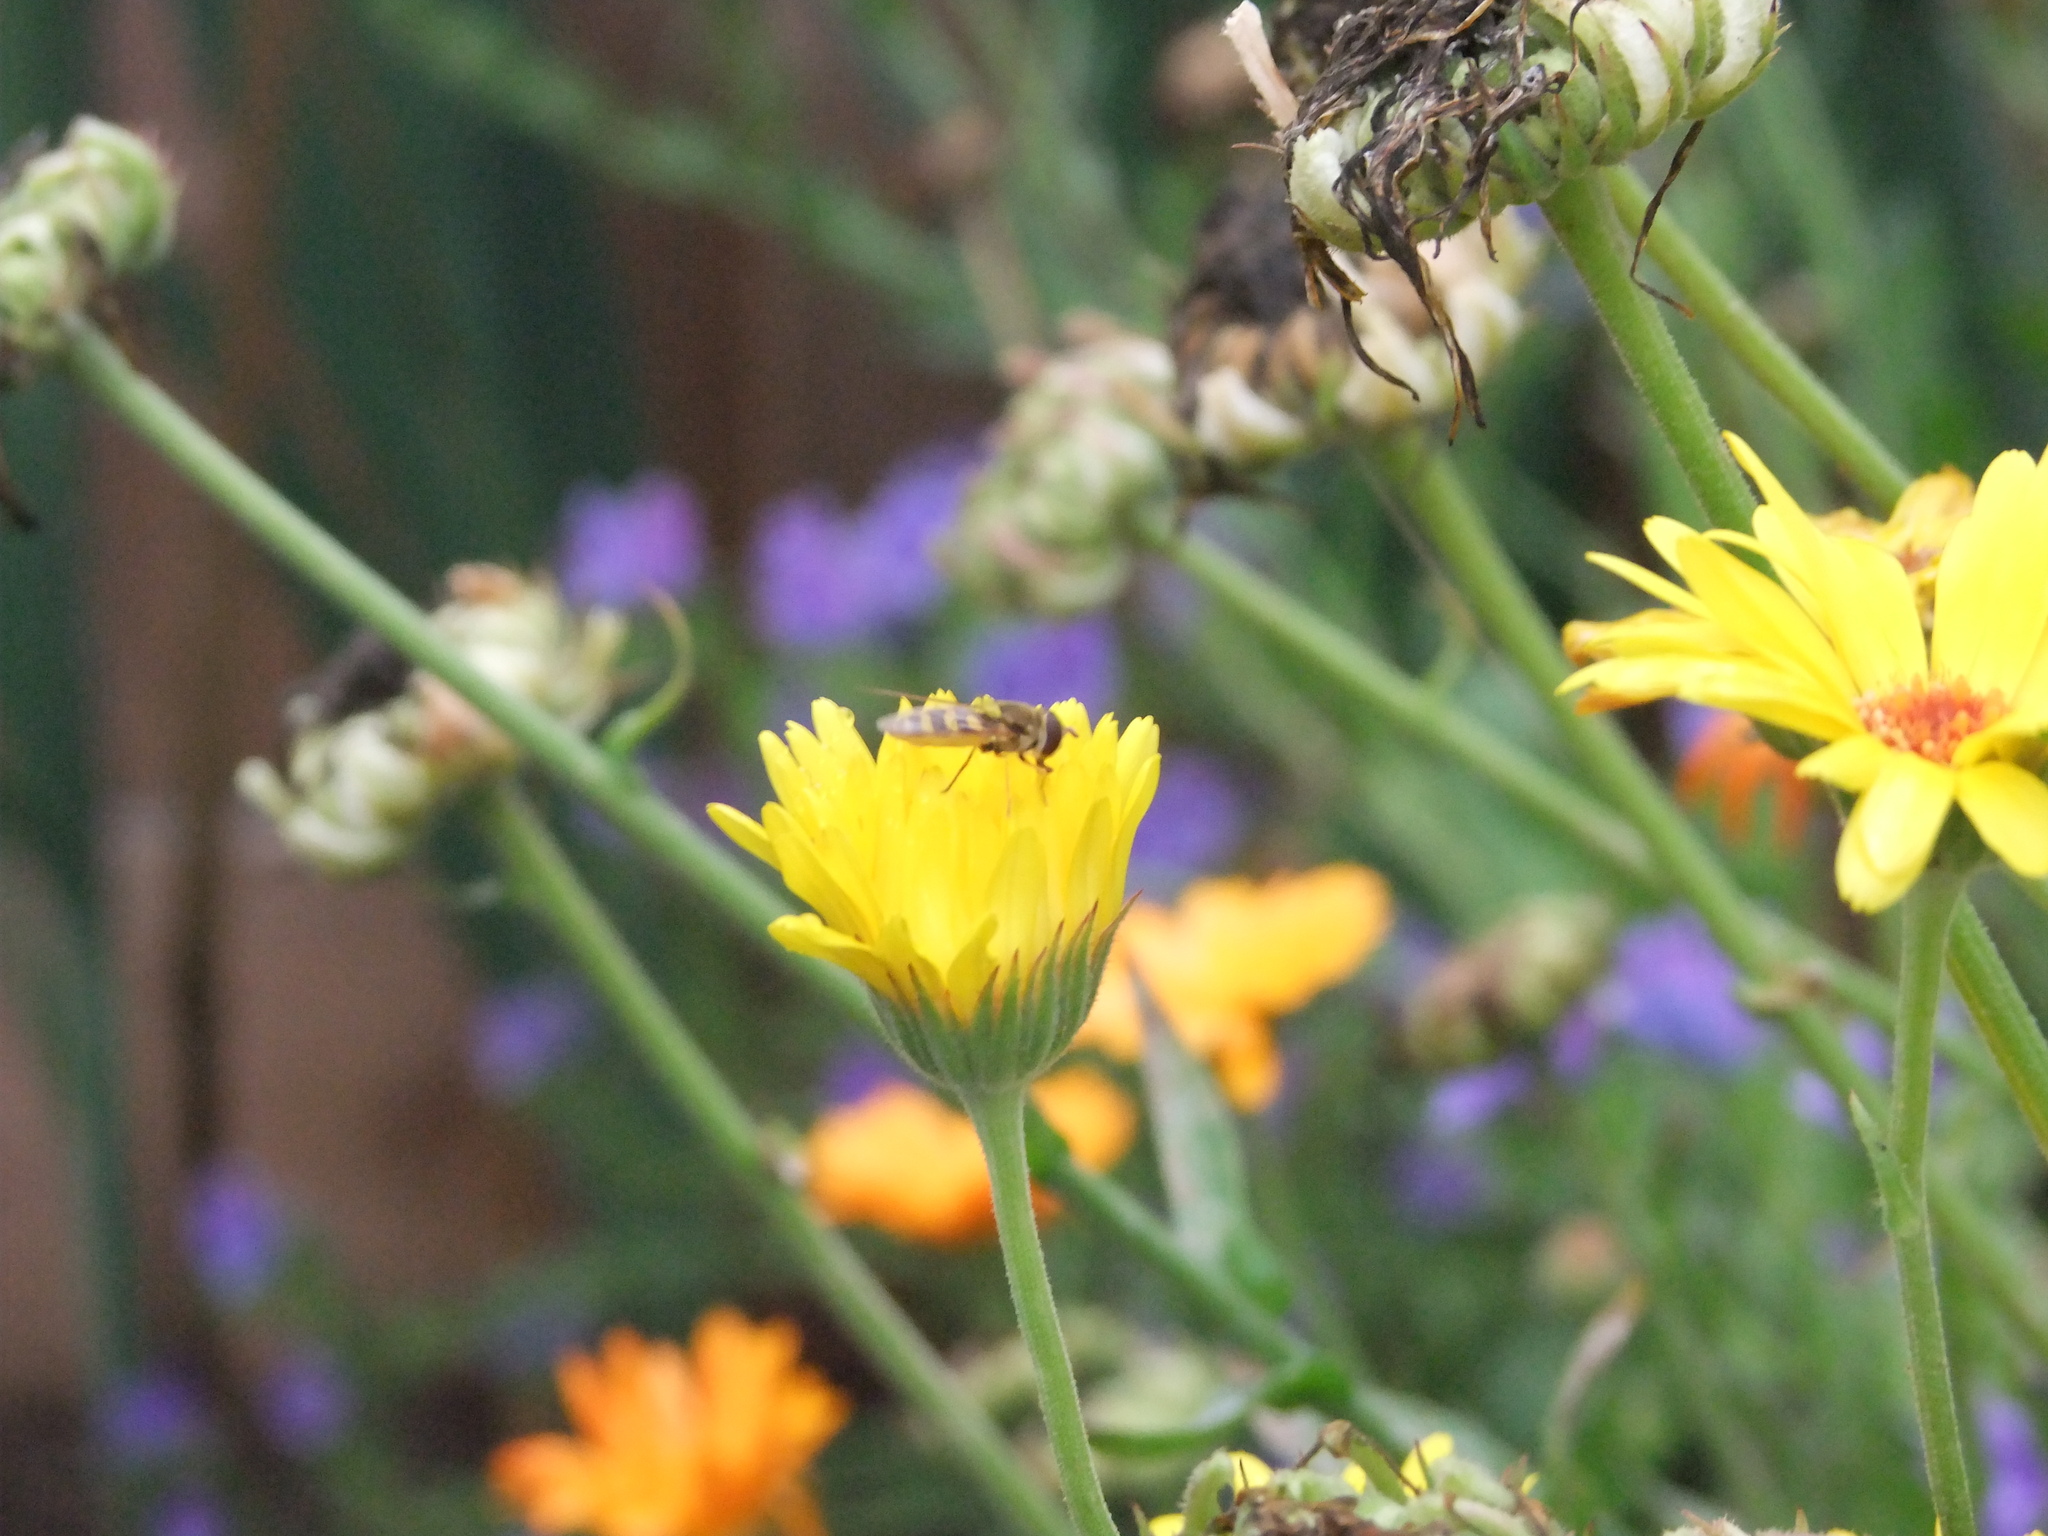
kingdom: Animalia
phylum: Arthropoda
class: Insecta
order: Diptera
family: Syrphidae
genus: Syrphus
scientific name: Syrphus
